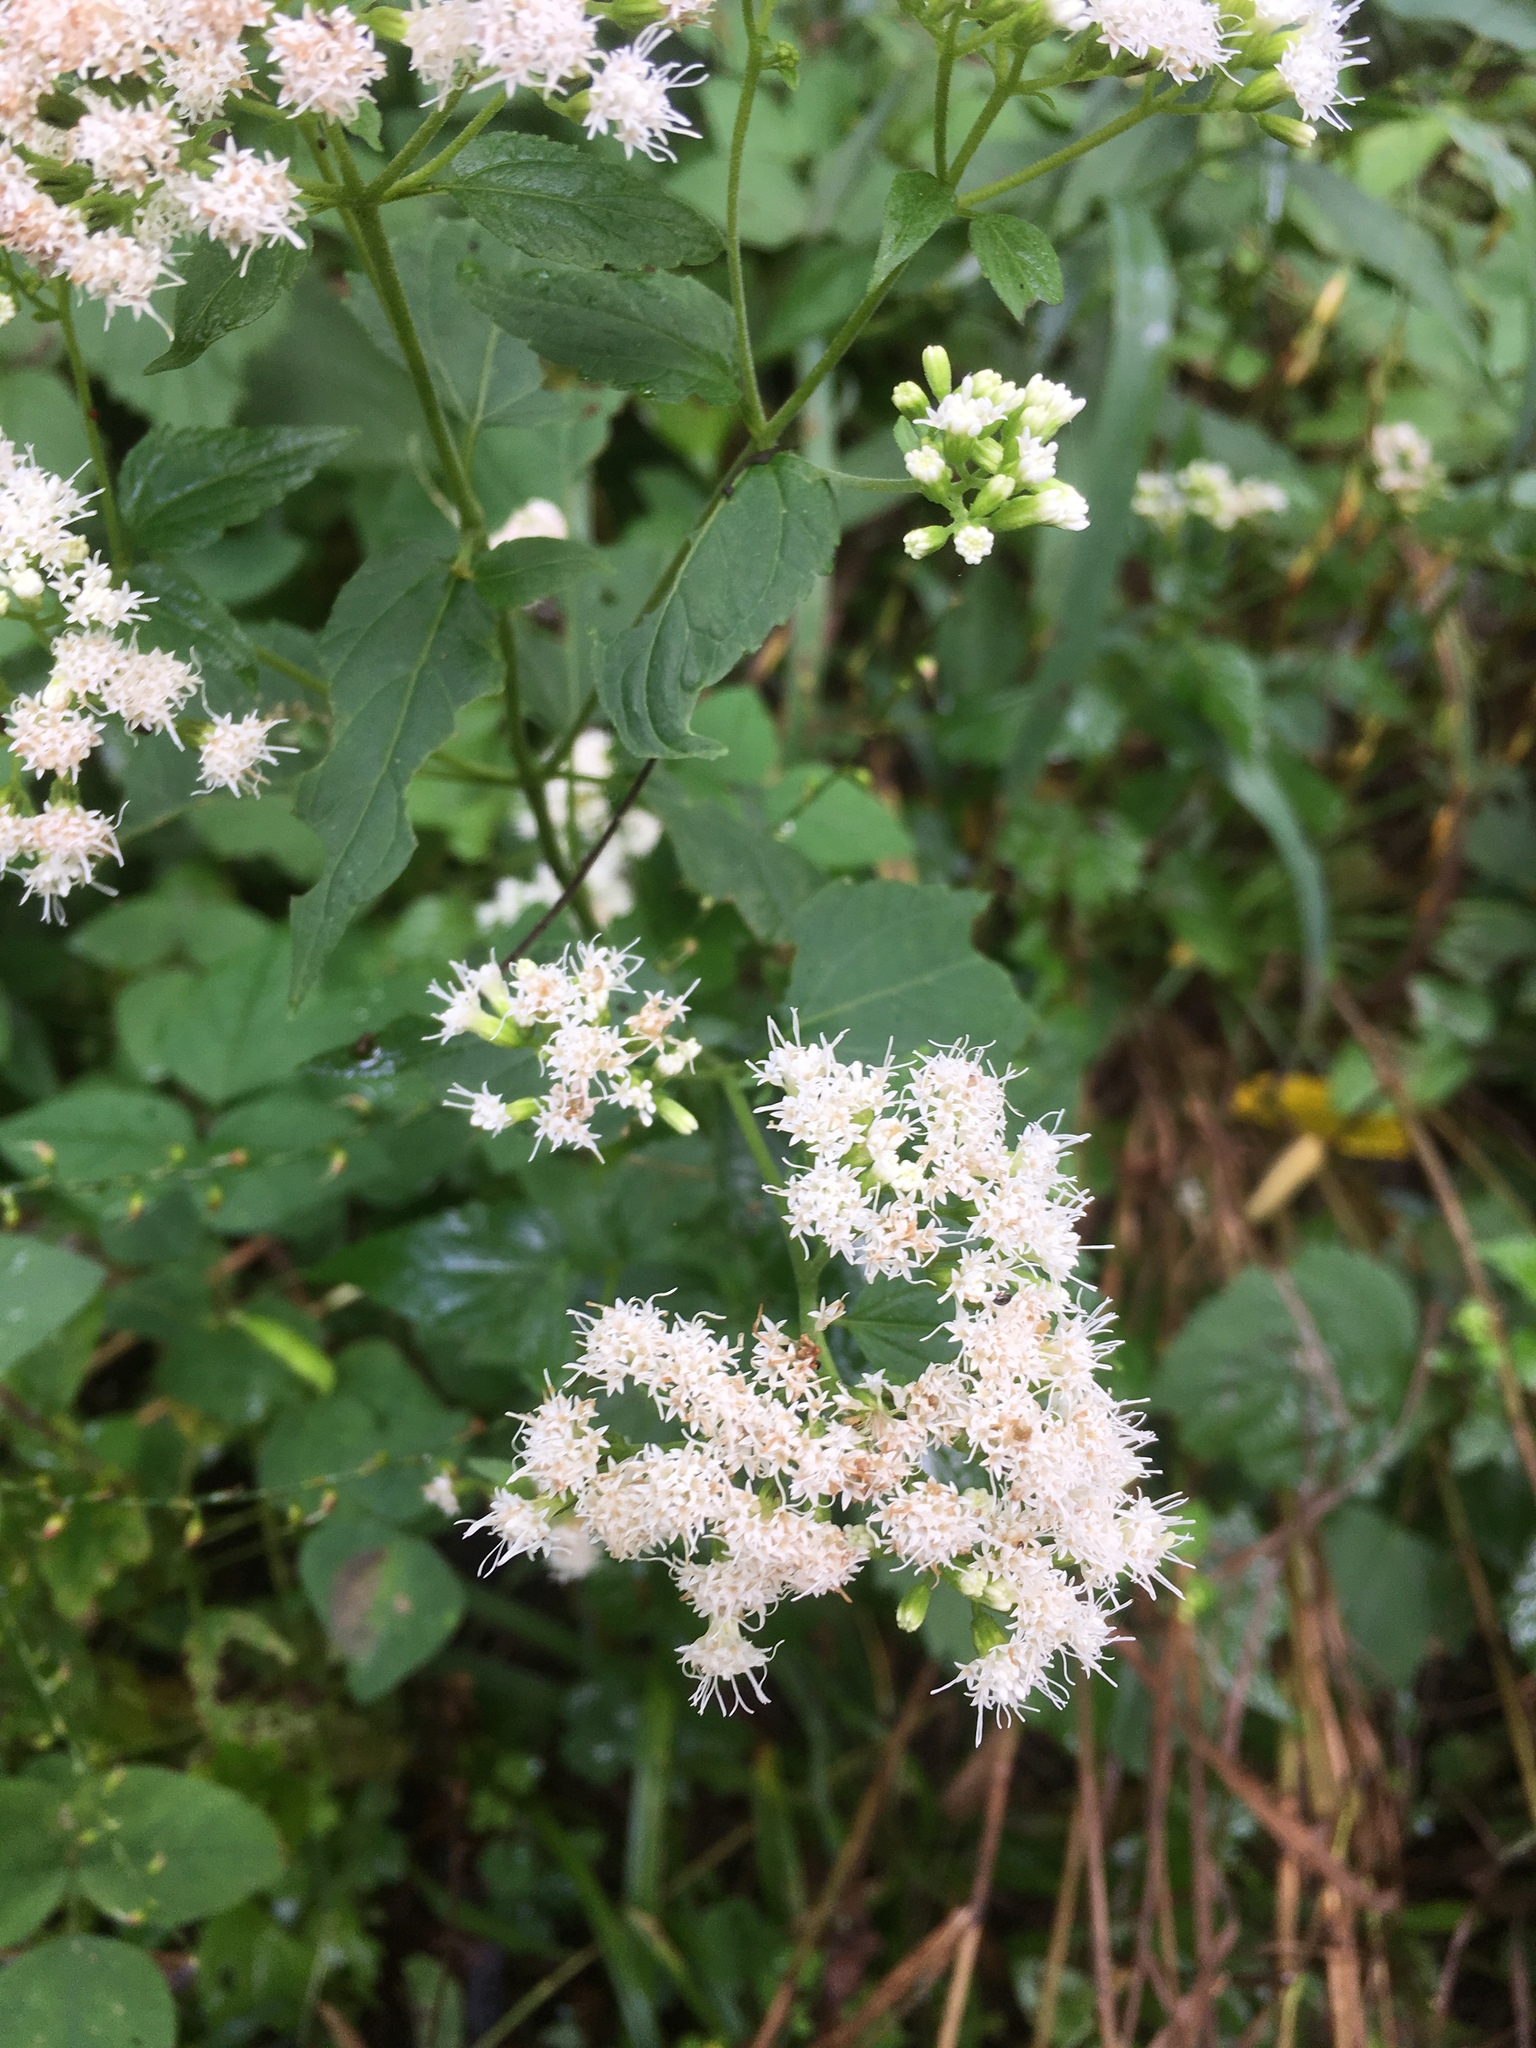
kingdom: Plantae
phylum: Tracheophyta
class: Magnoliopsida
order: Asterales
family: Asteraceae
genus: Ageratina
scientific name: Ageratina altissima
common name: White snakeroot
